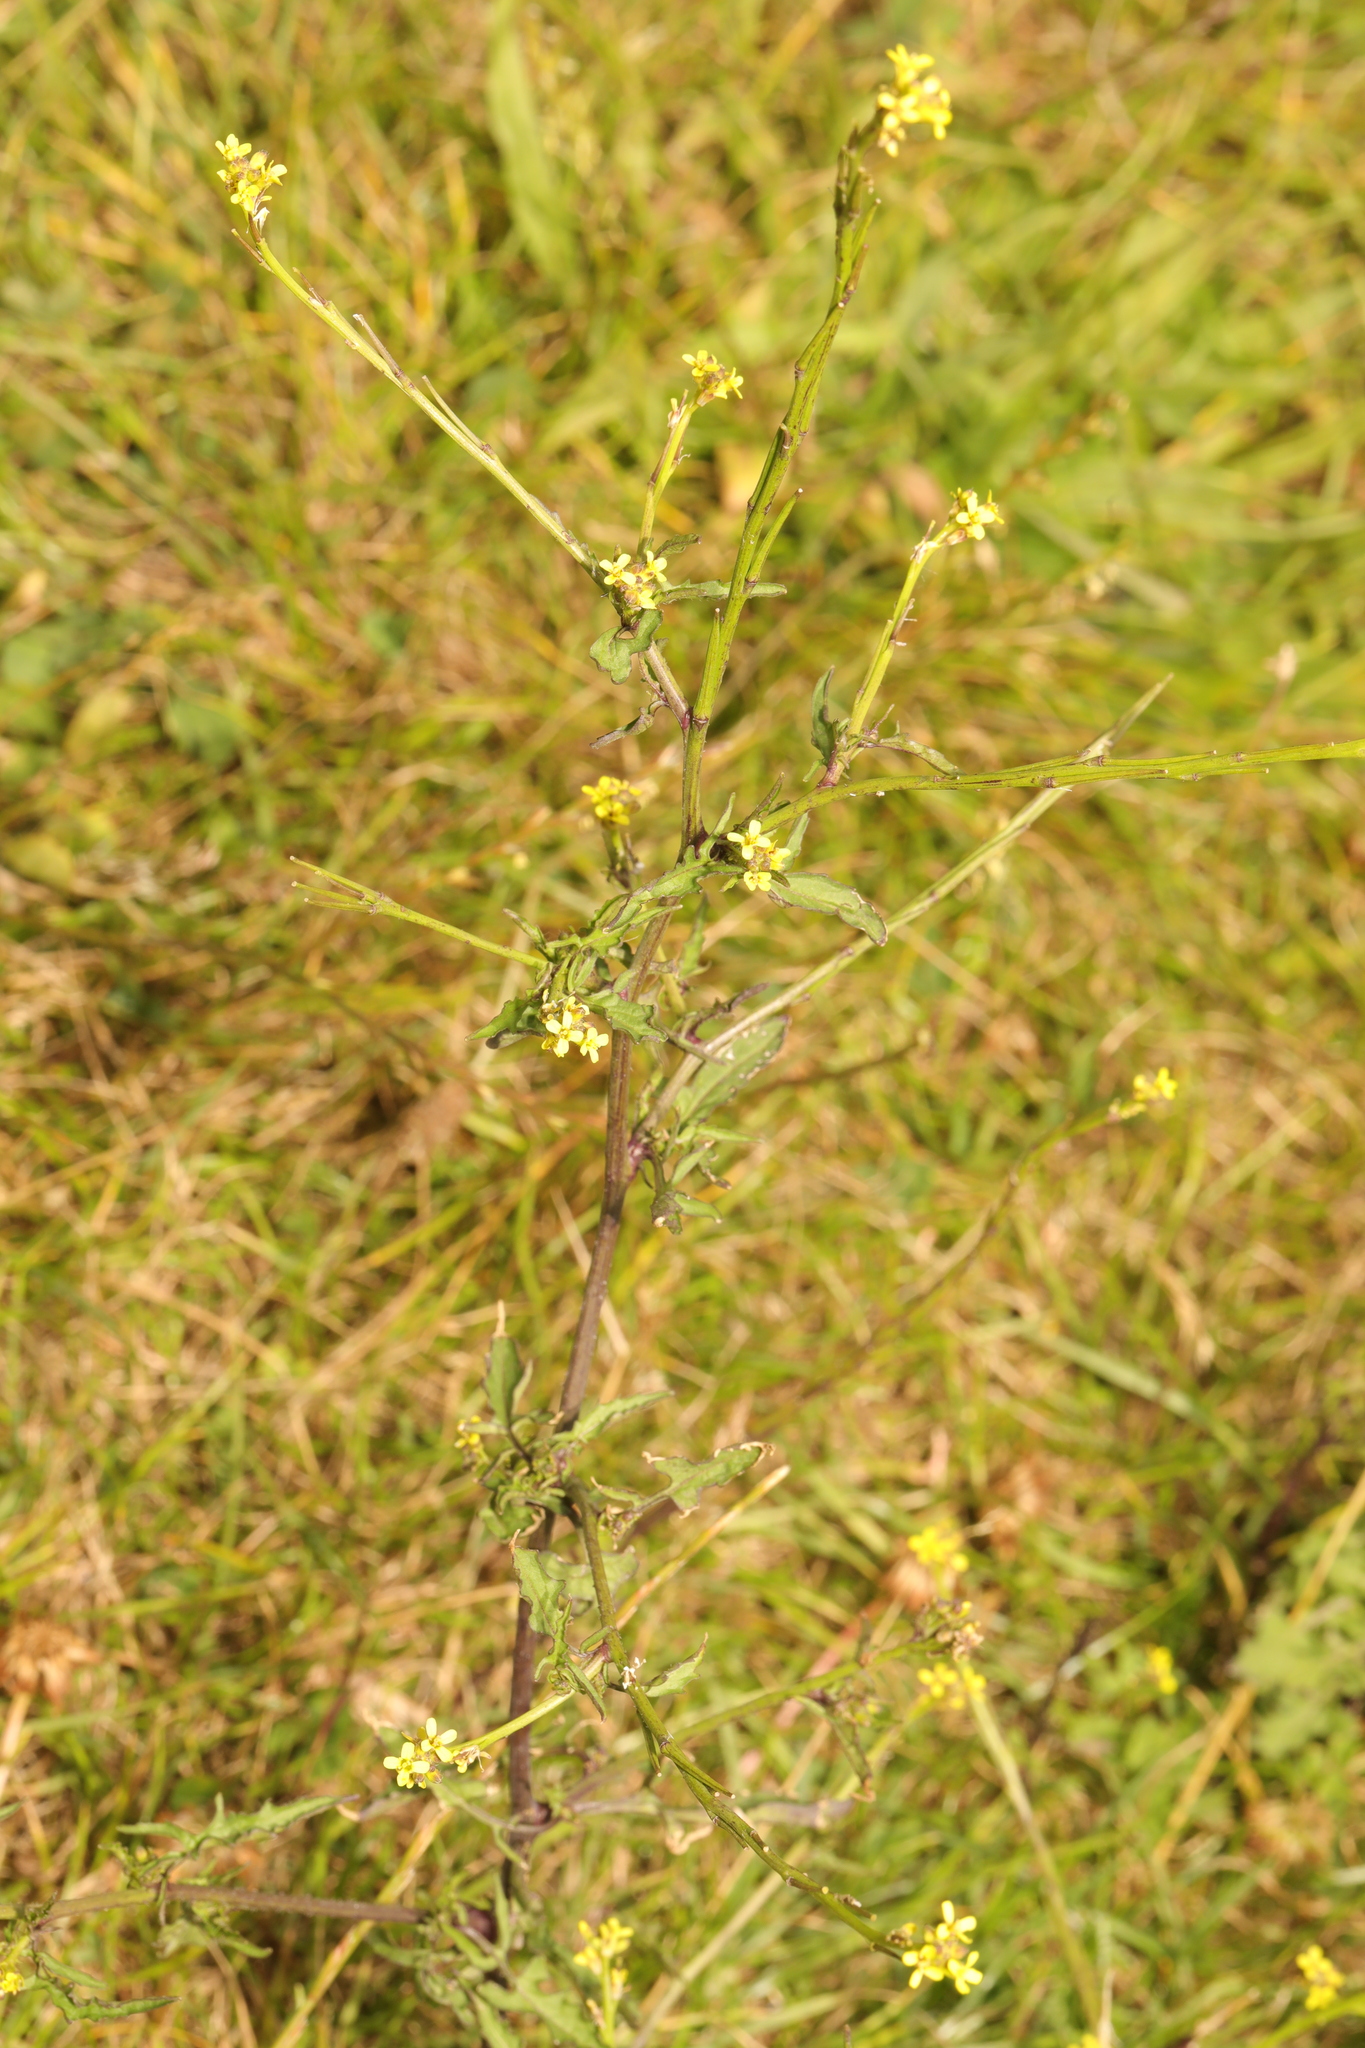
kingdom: Plantae
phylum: Tracheophyta
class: Magnoliopsida
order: Brassicales
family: Brassicaceae
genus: Sisymbrium
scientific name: Sisymbrium officinale
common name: Hedge mustard
